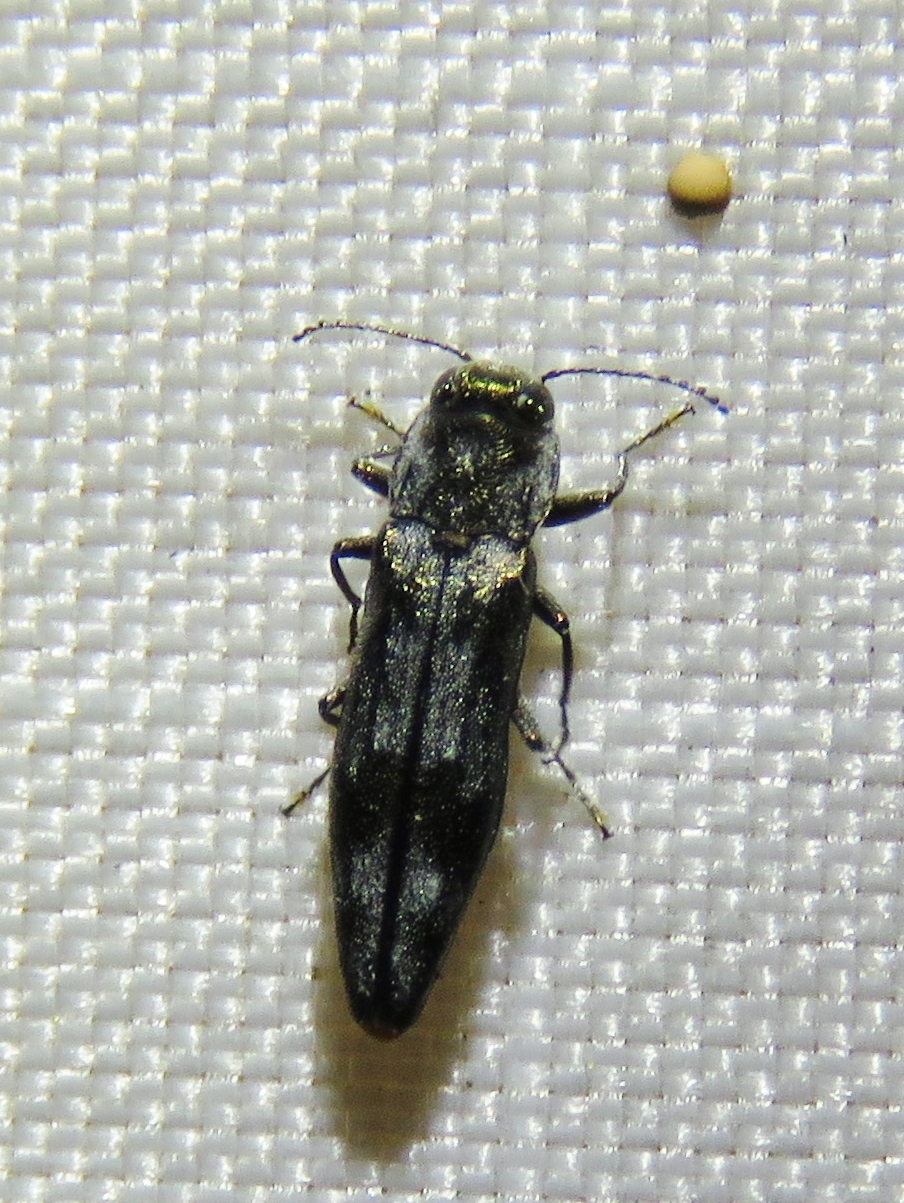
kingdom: Animalia
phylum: Arthropoda
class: Insecta
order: Coleoptera
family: Buprestidae
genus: Agrilus
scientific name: Agrilus lecontei
